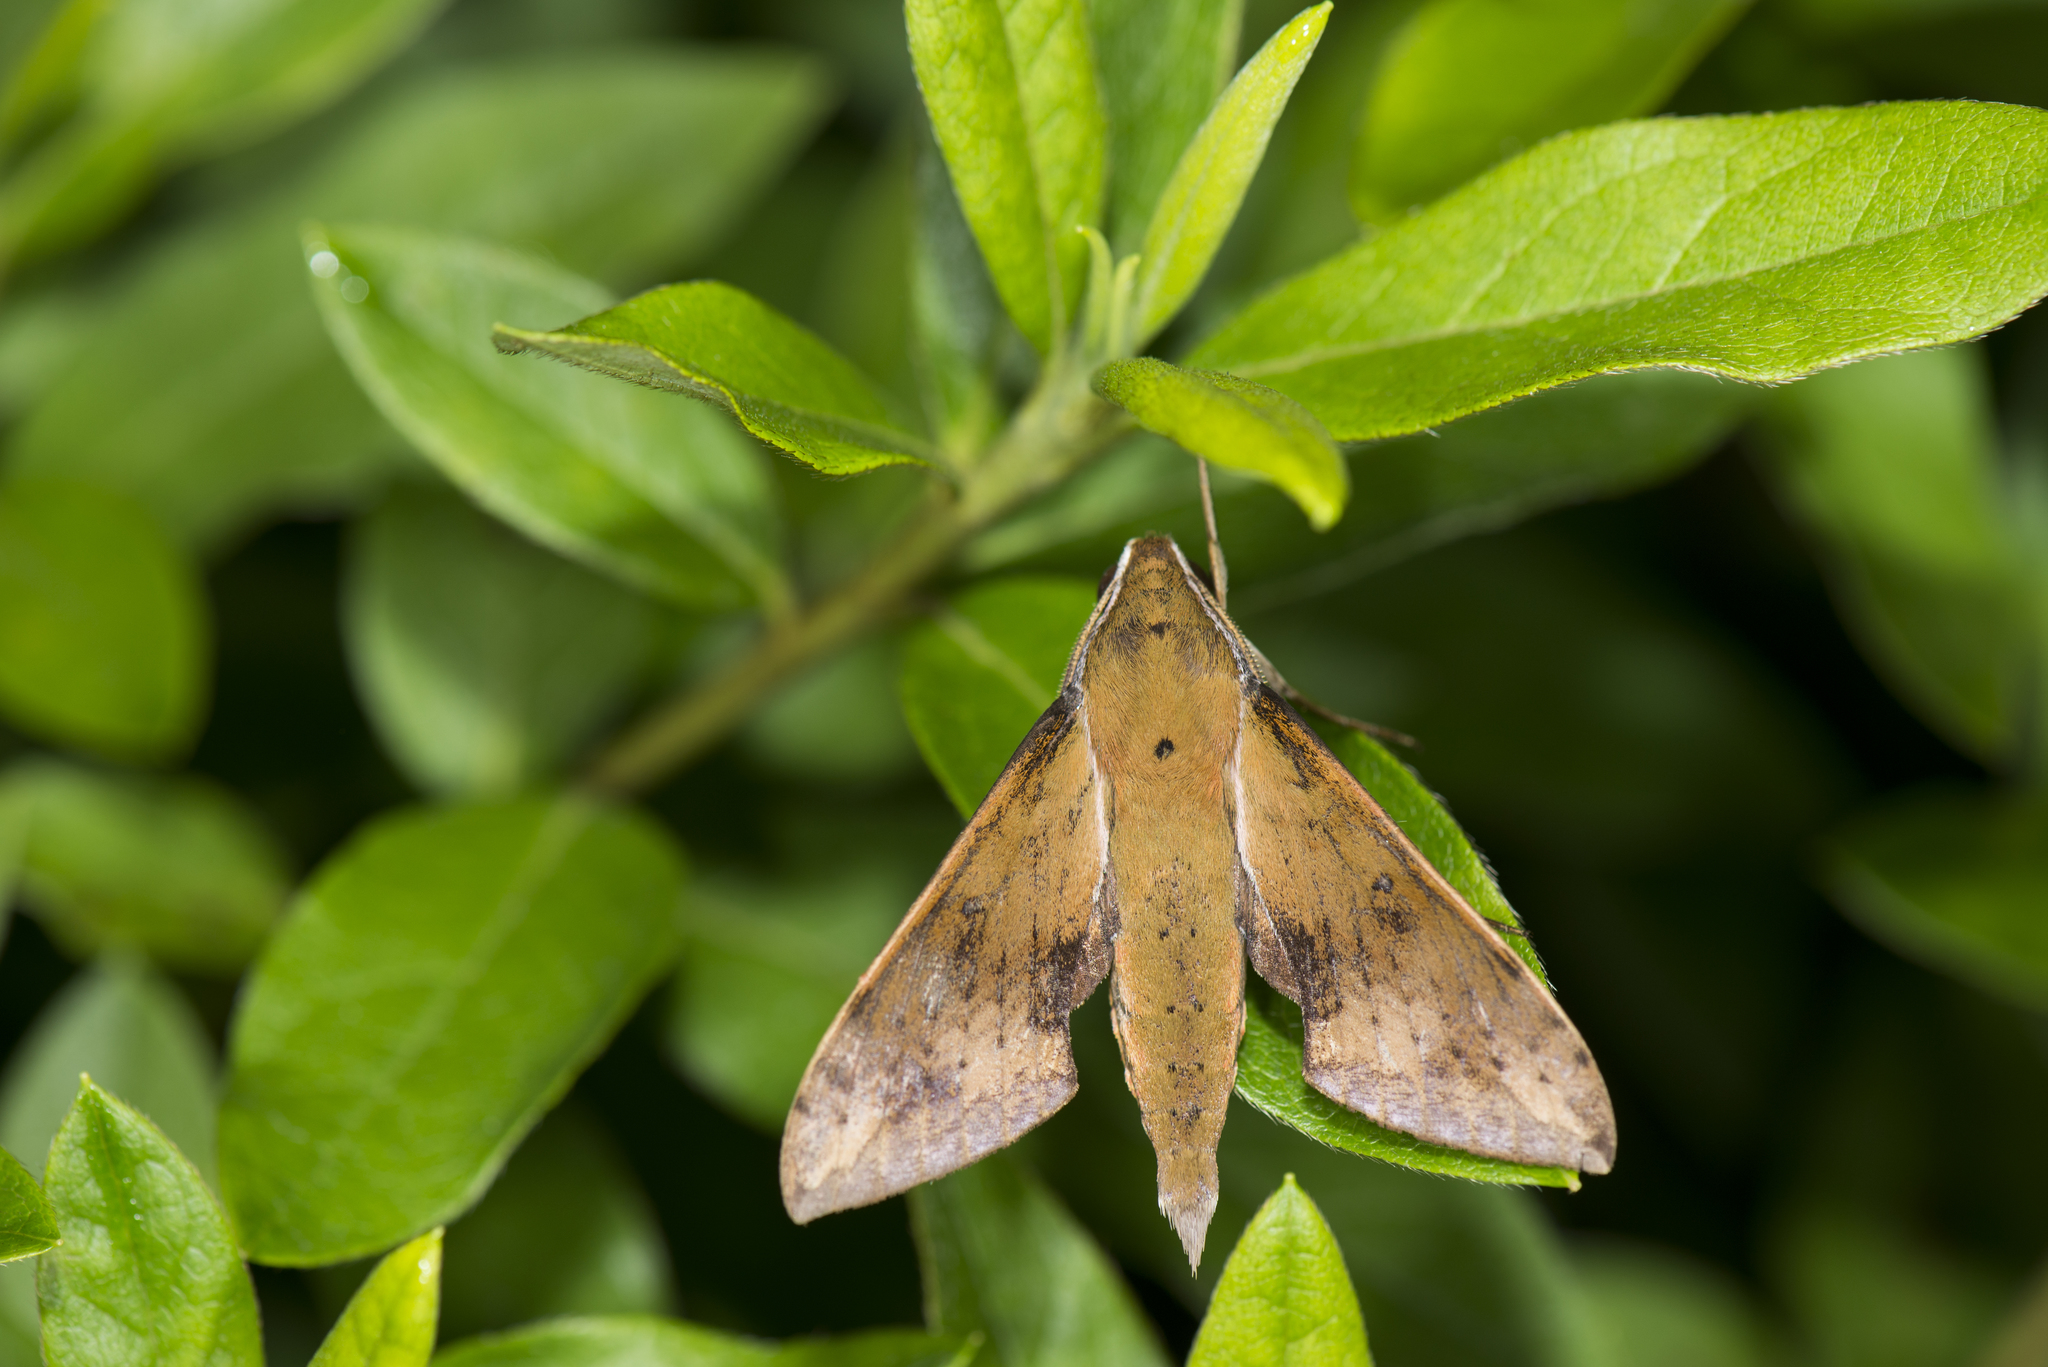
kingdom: Animalia
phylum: Arthropoda
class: Insecta
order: Lepidoptera
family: Sphingidae
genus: Rhagastis
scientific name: Rhagastis castor
